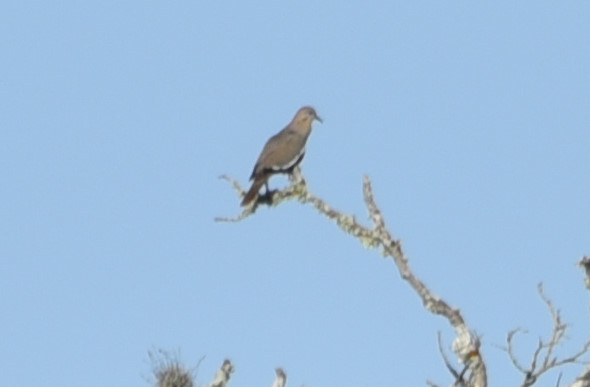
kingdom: Animalia
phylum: Chordata
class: Aves
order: Columbiformes
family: Columbidae
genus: Zenaida
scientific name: Zenaida asiatica
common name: White-winged dove
